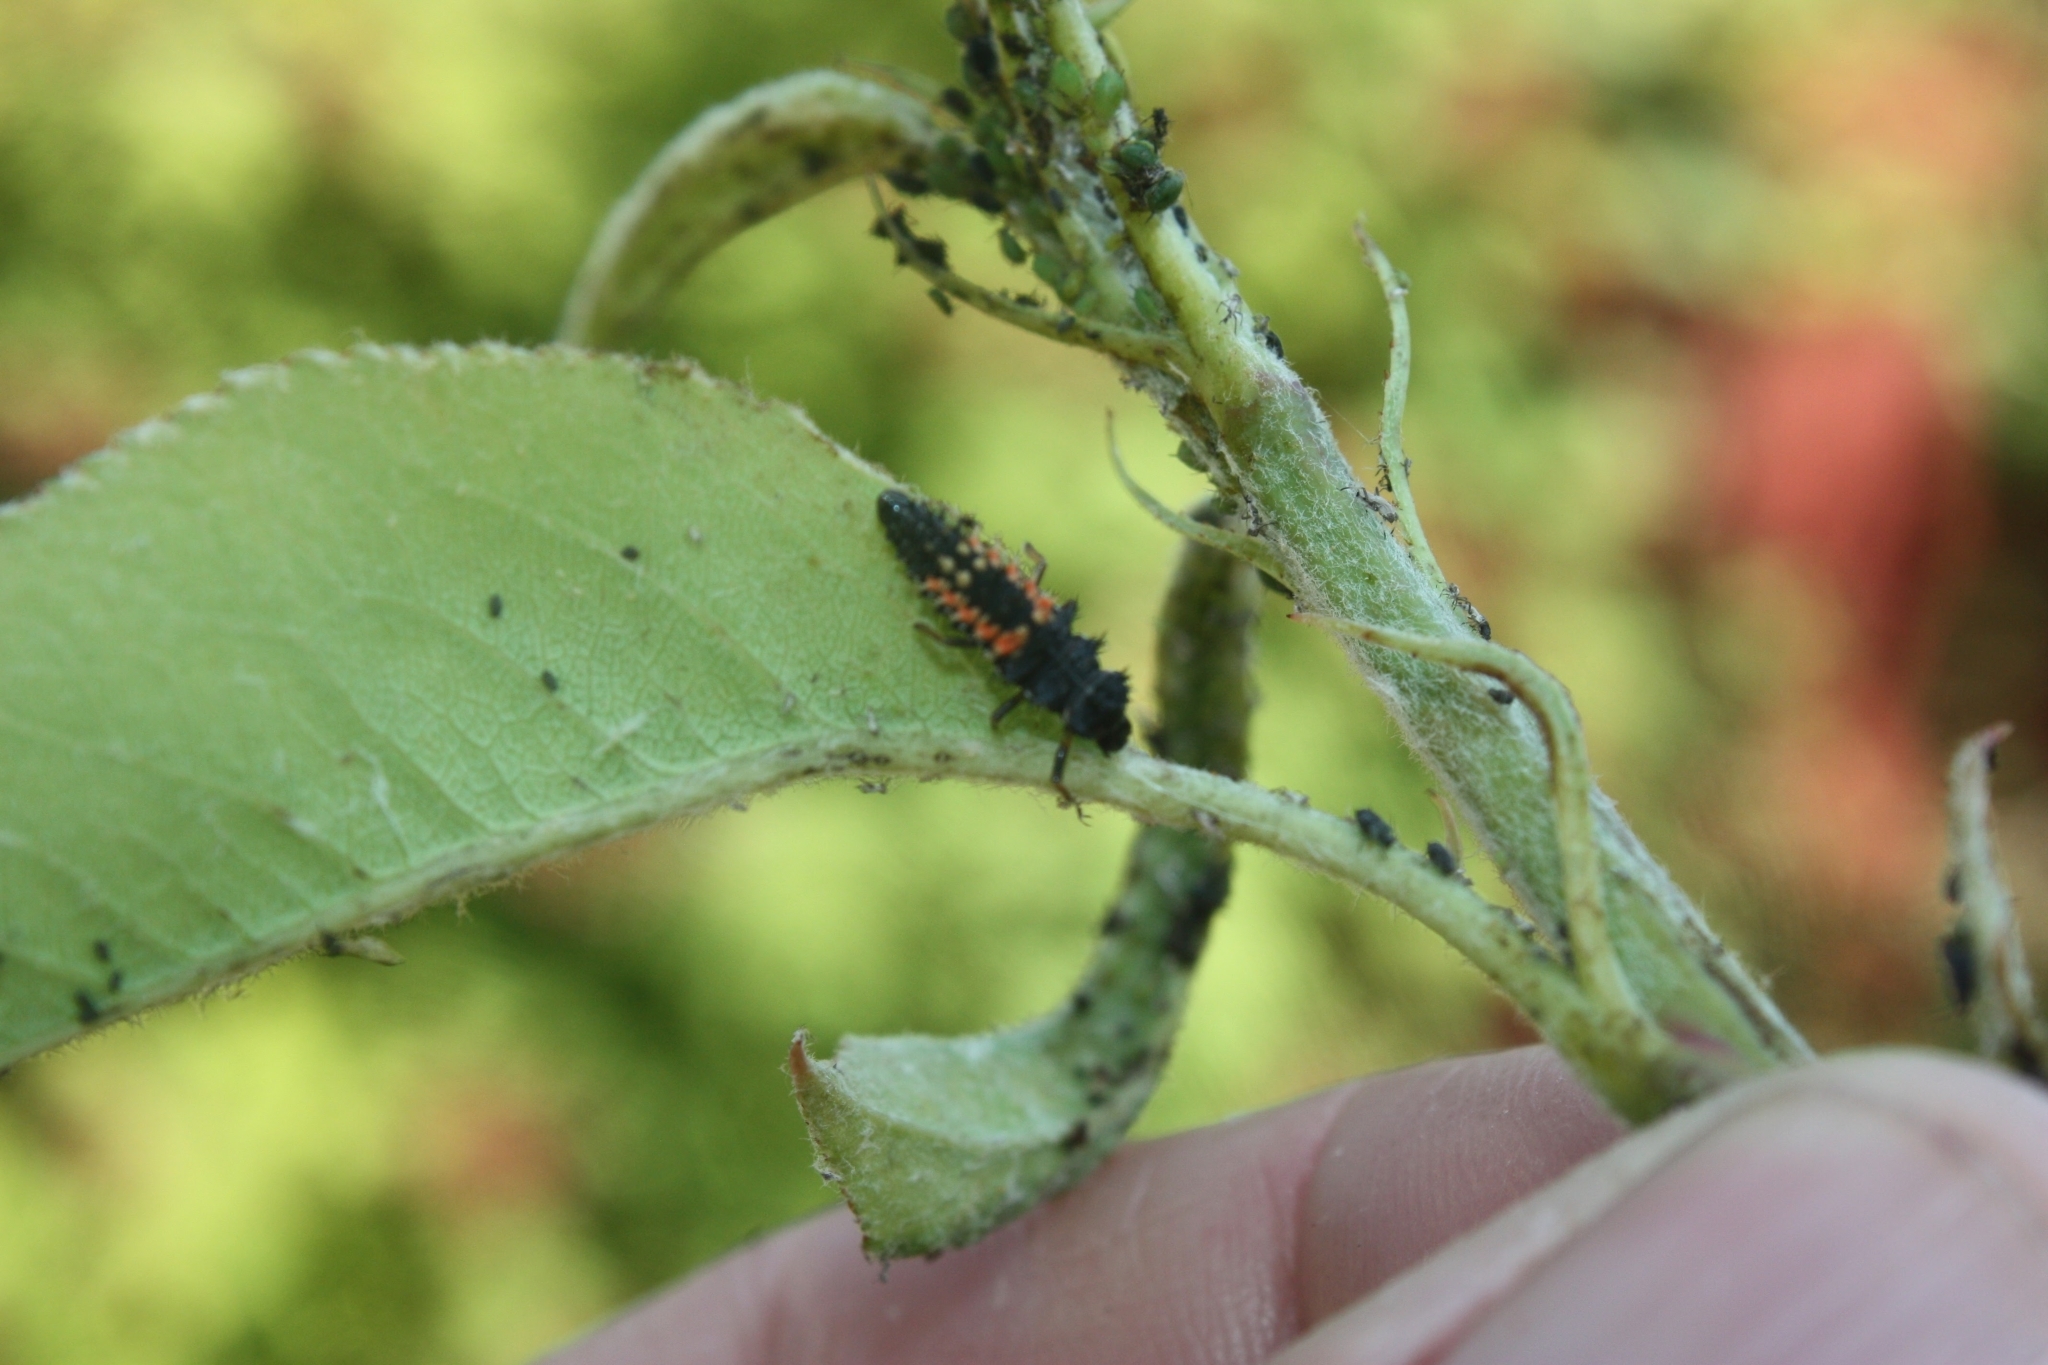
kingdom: Animalia
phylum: Arthropoda
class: Insecta
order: Coleoptera
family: Coccinellidae
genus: Harmonia
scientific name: Harmonia axyridis
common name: Harlequin ladybird
